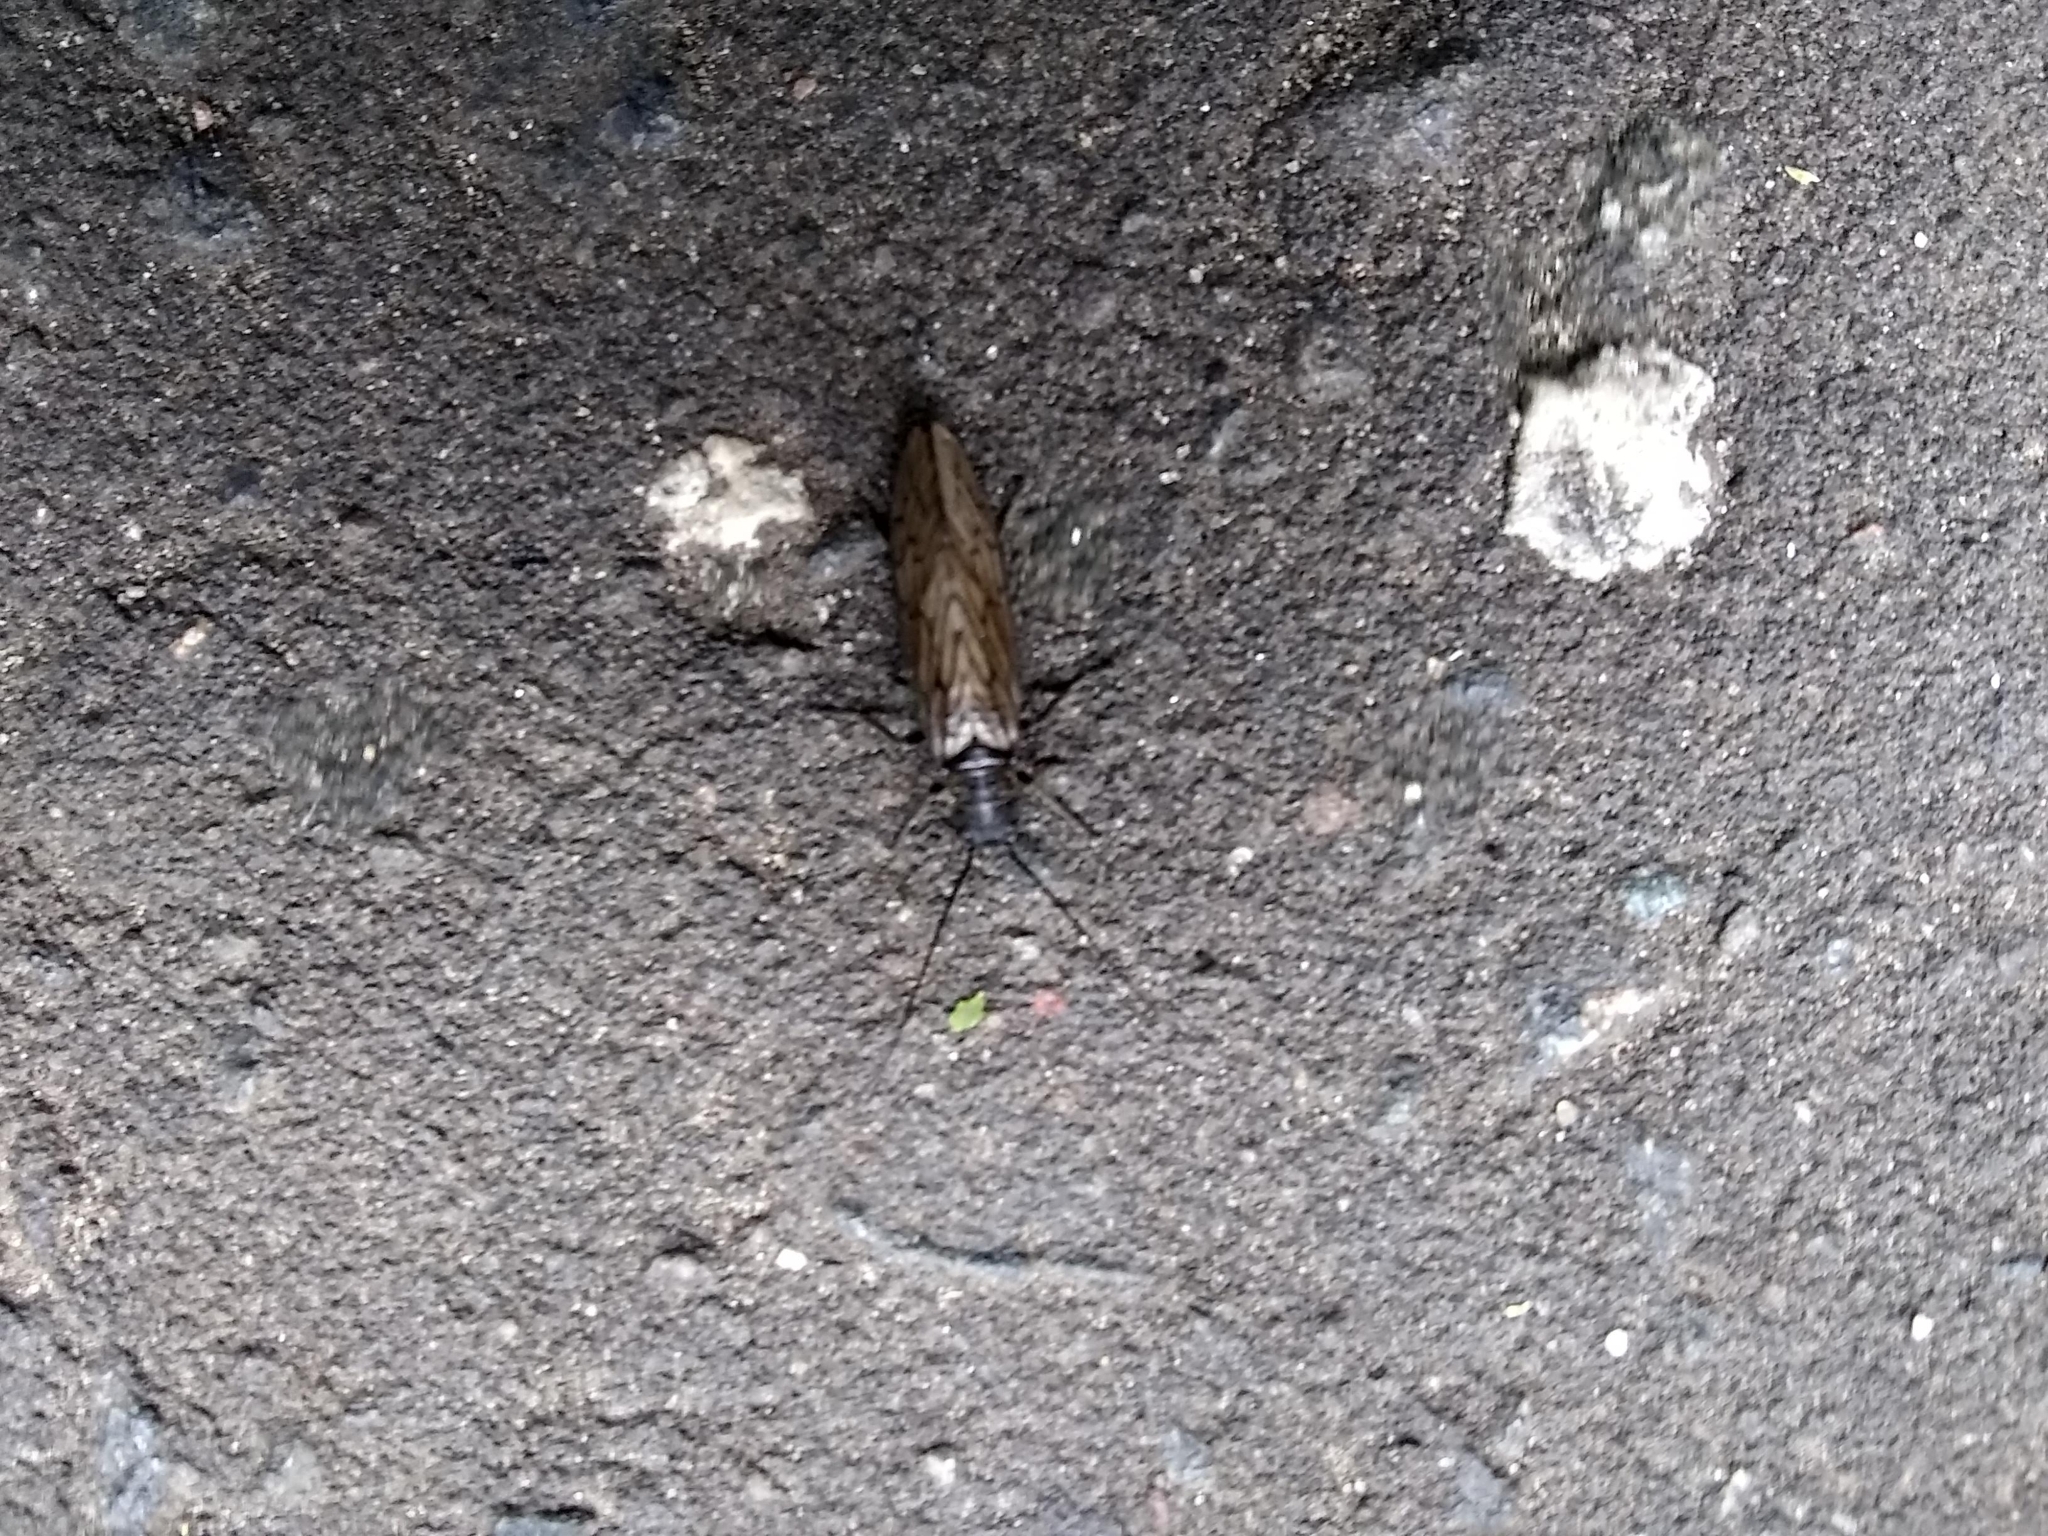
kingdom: Animalia
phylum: Arthropoda
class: Insecta
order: Megaloptera
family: Sialidae
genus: Sialis
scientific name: Sialis
